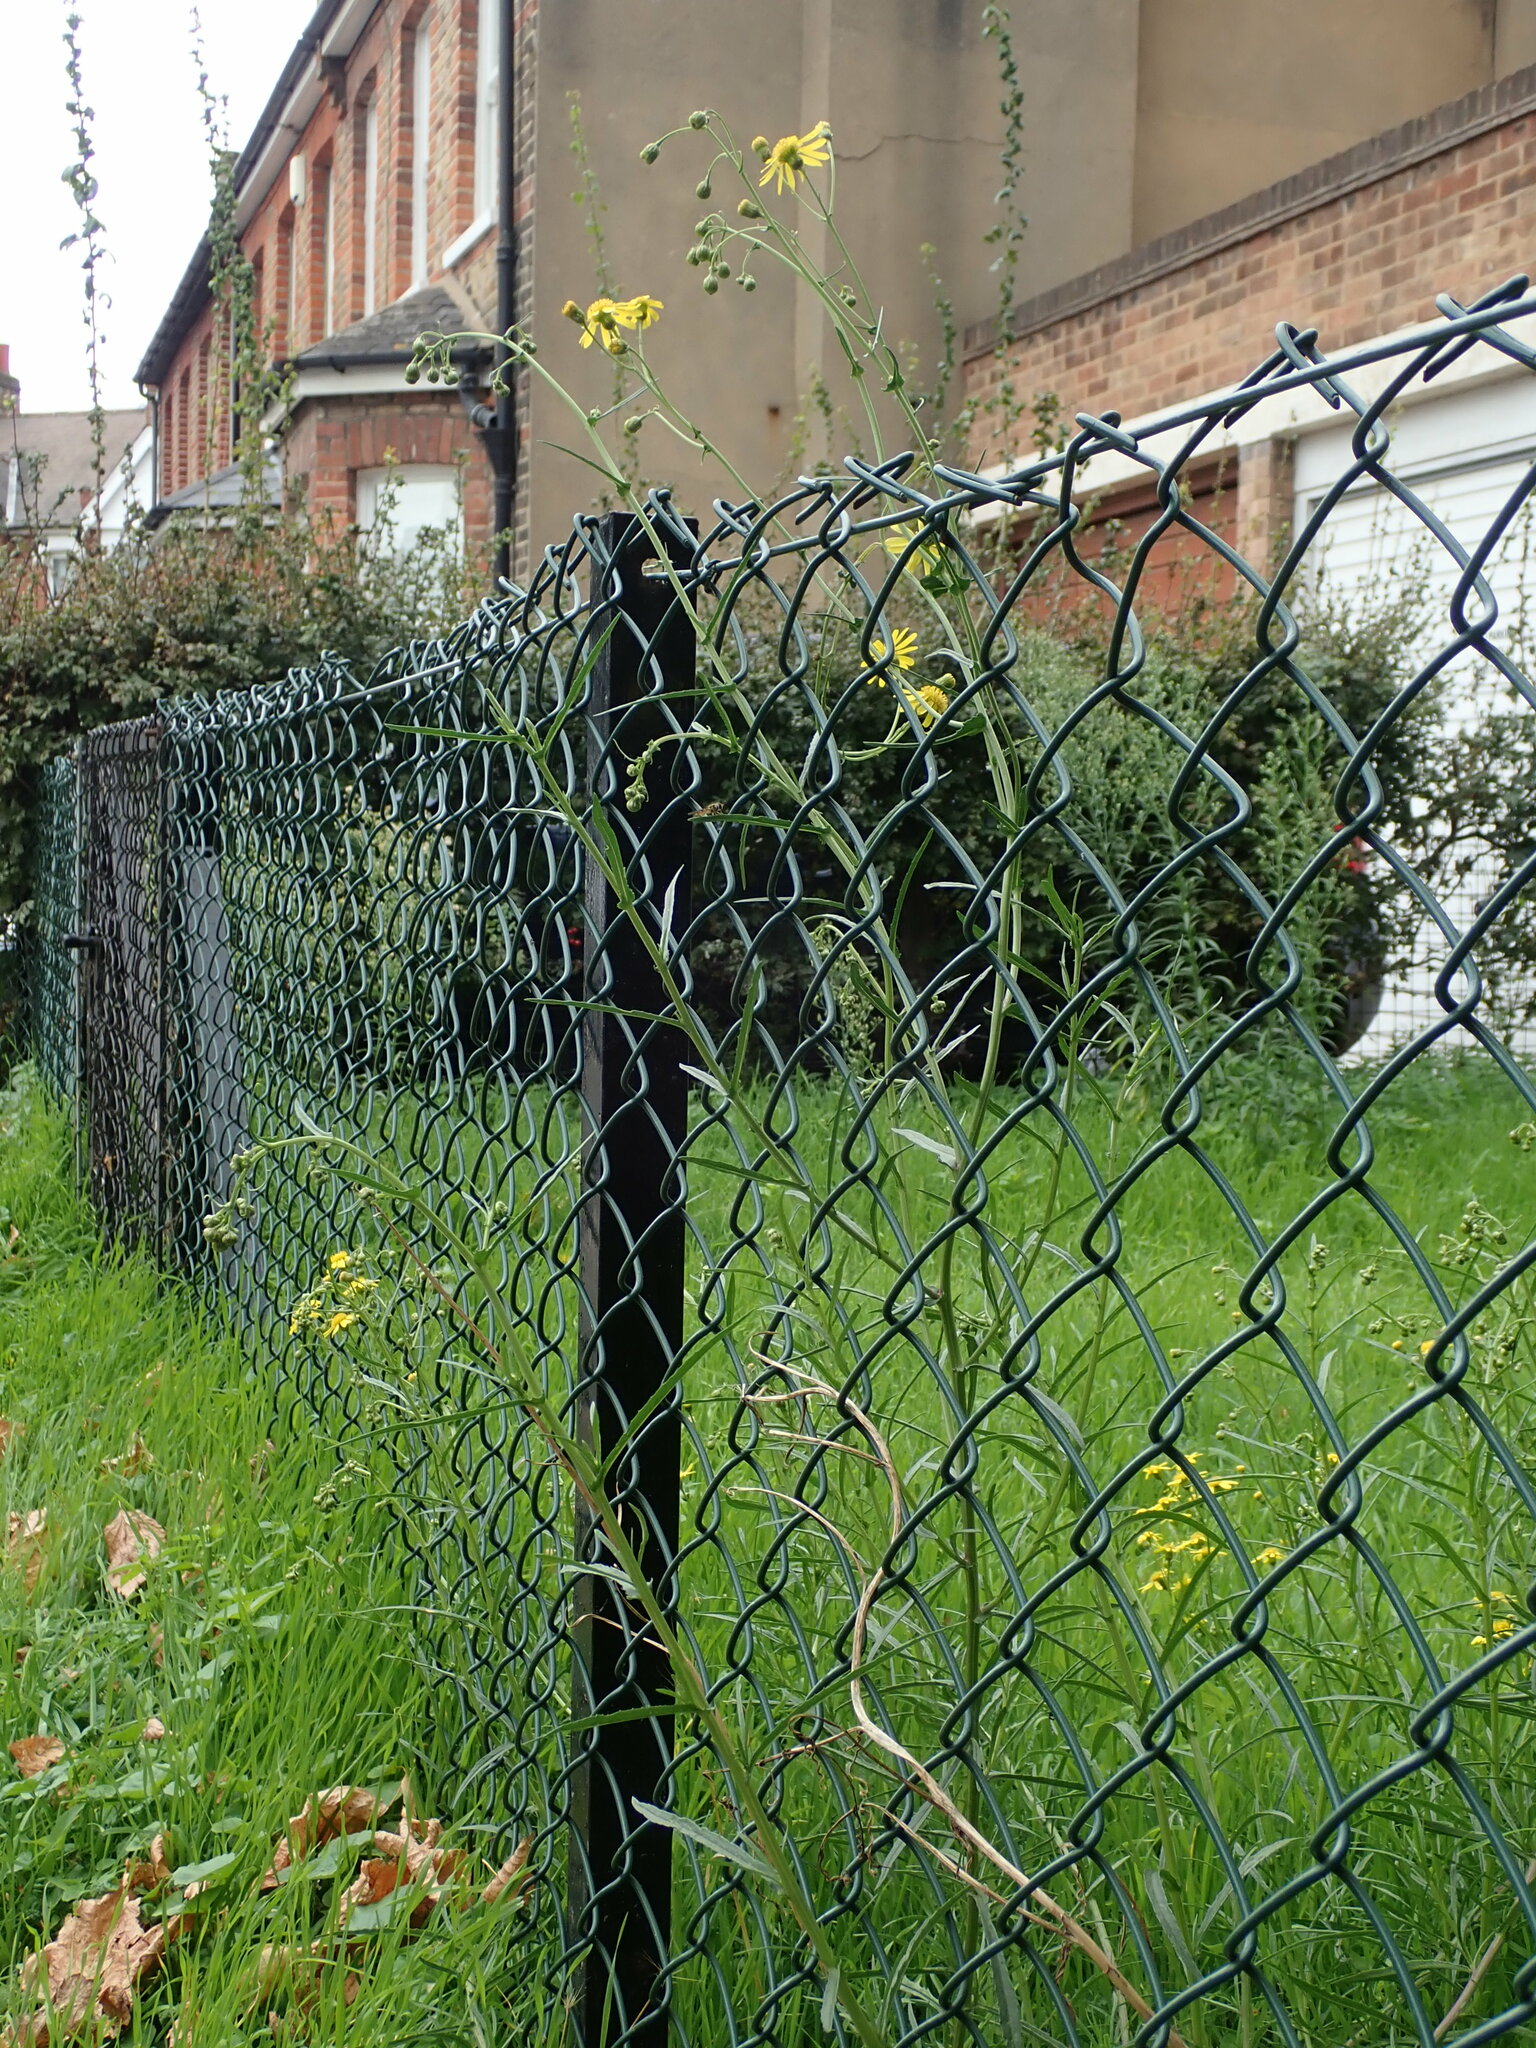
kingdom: Plantae
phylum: Tracheophyta
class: Magnoliopsida
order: Asterales
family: Asteraceae
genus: Senecio
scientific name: Senecio inaequidens
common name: Narrow-leaved ragwort
